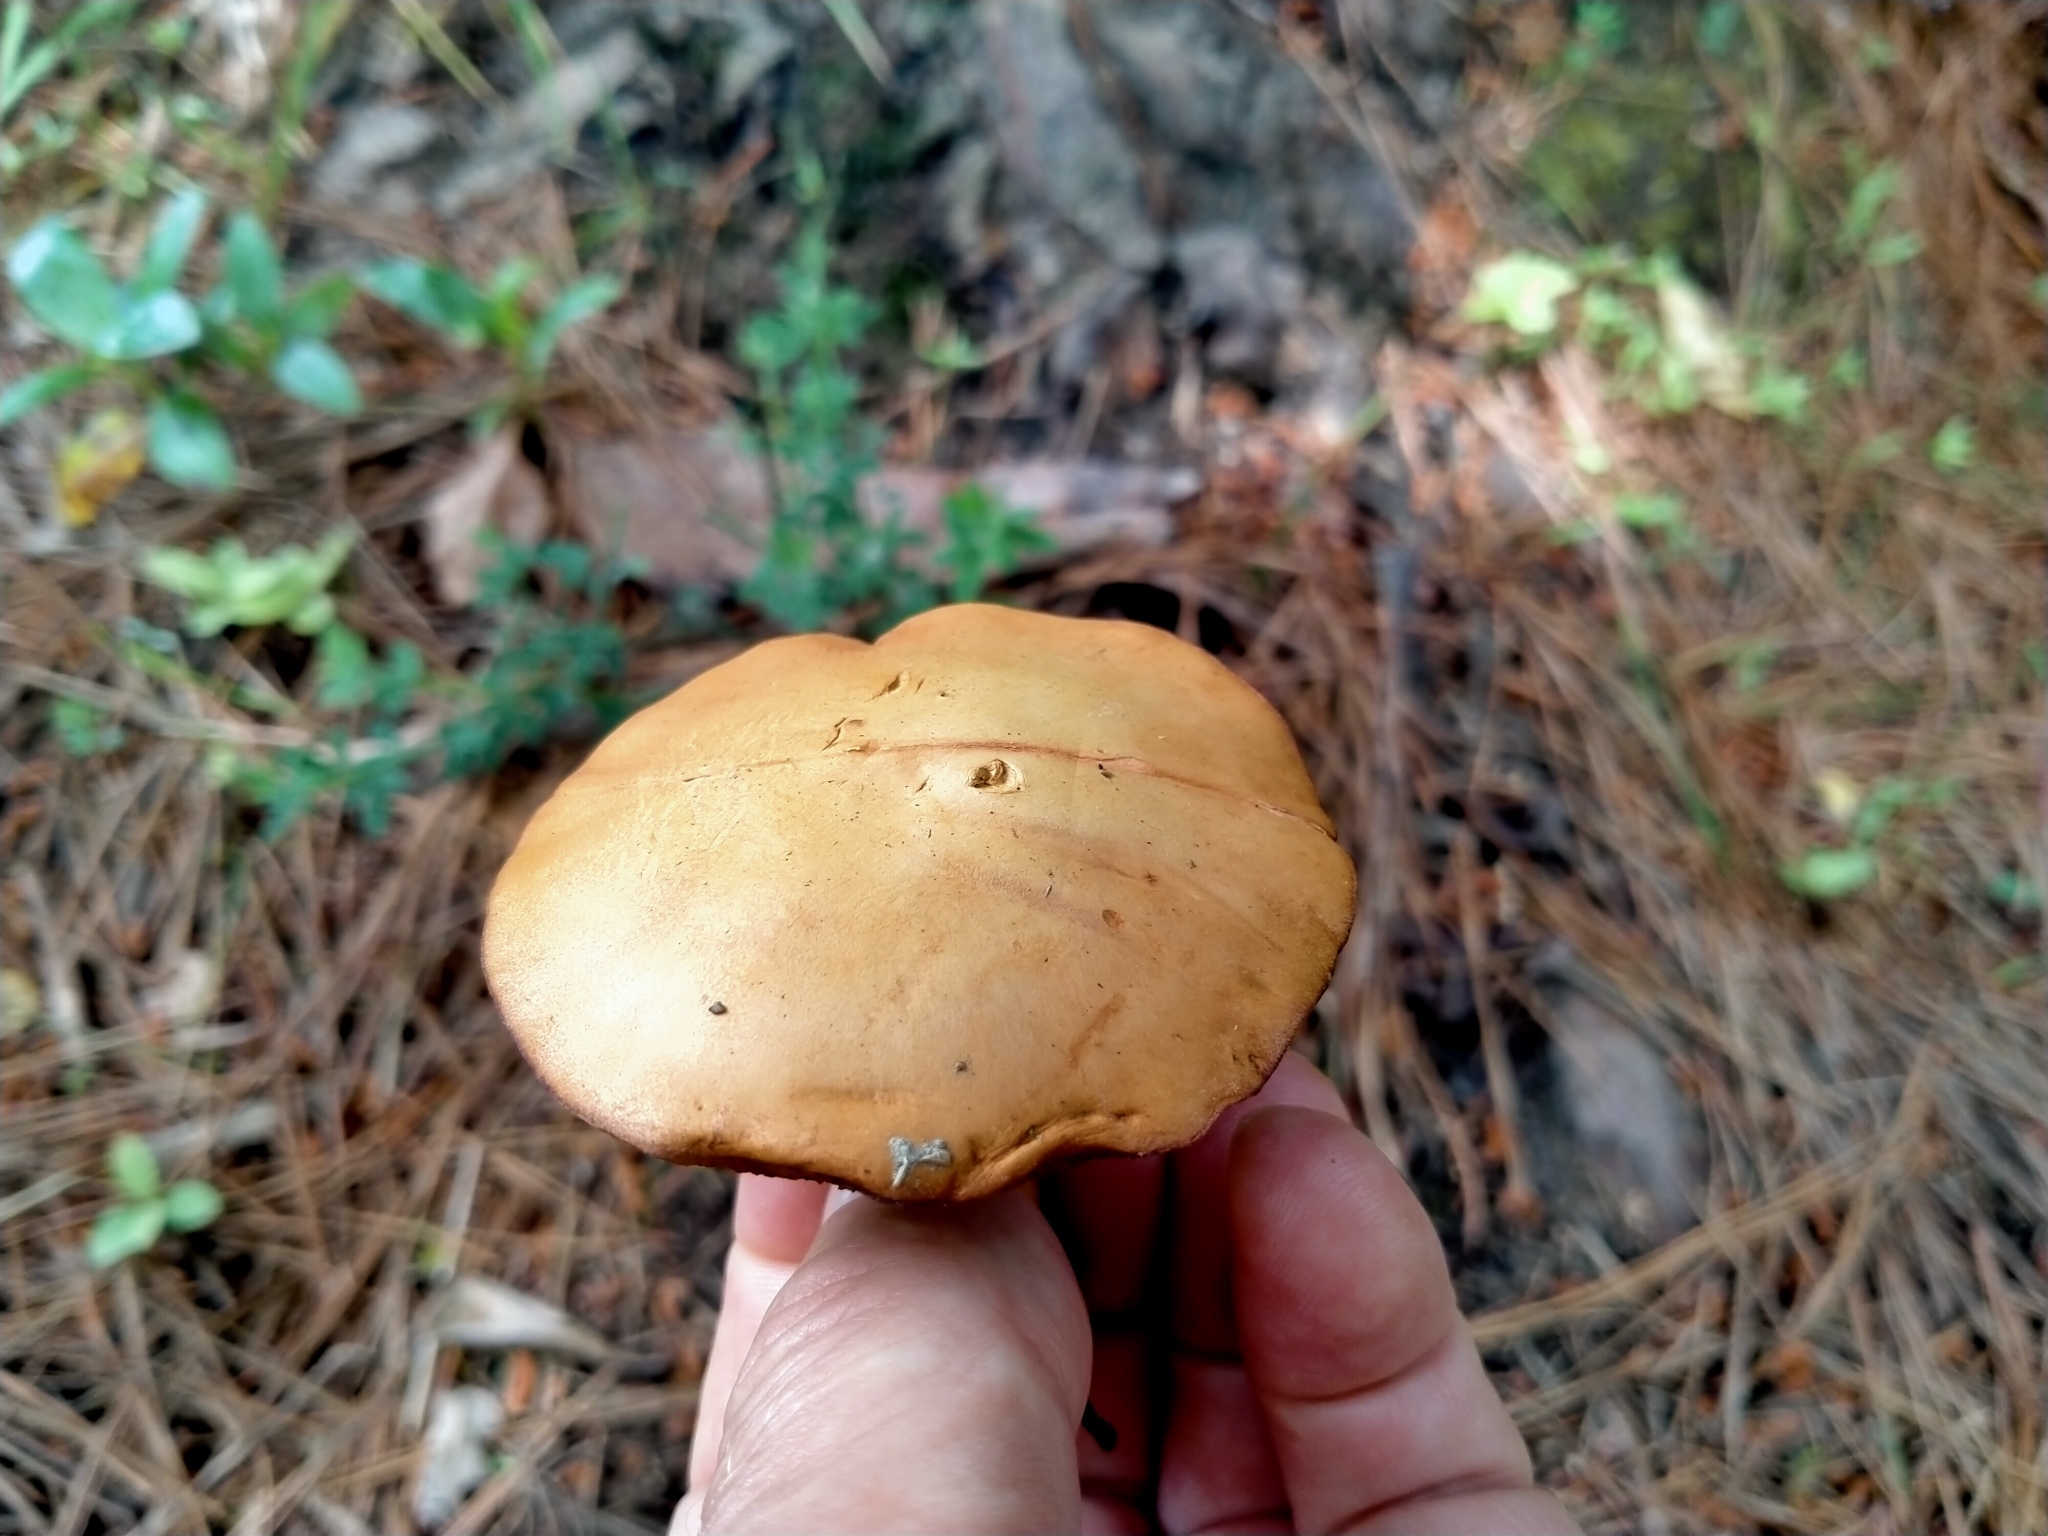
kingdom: Fungi
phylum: Basidiomycota
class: Agaricomycetes
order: Boletales
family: Boletaceae
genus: Chalciporus
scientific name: Chalciporus piperatus
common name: Peppery bolete
